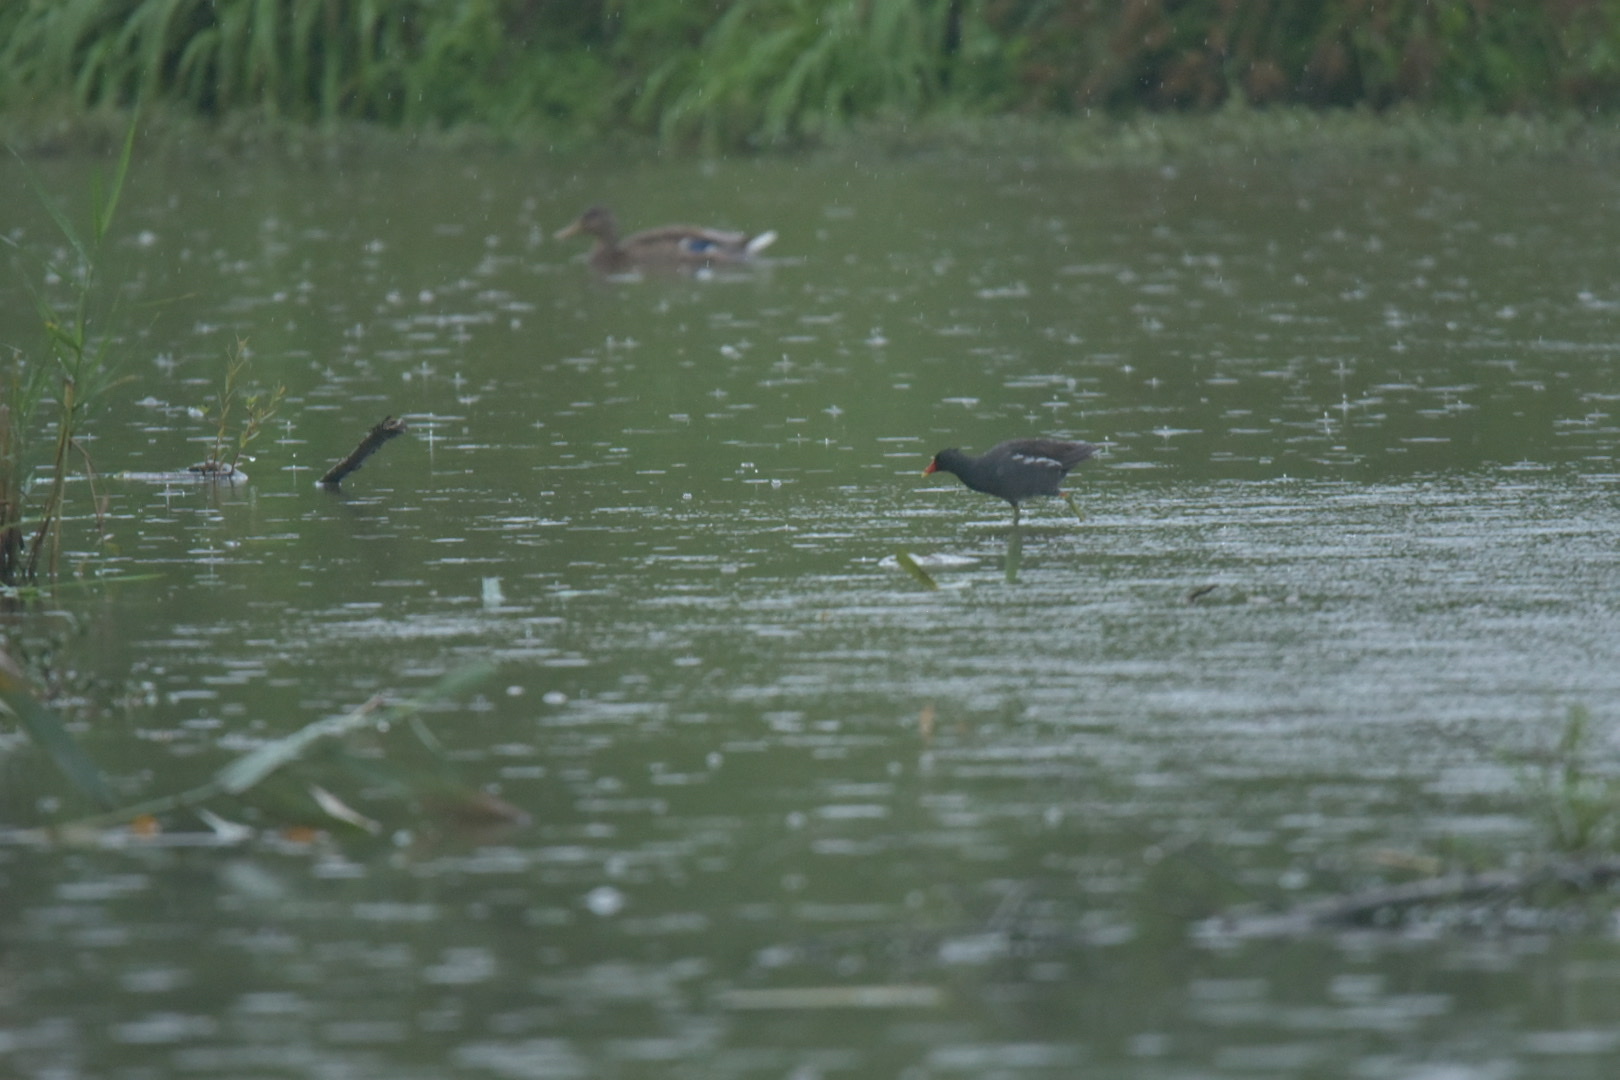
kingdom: Animalia
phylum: Chordata
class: Aves
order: Gruiformes
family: Rallidae
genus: Gallinula
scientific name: Gallinula chloropus
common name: Common moorhen
